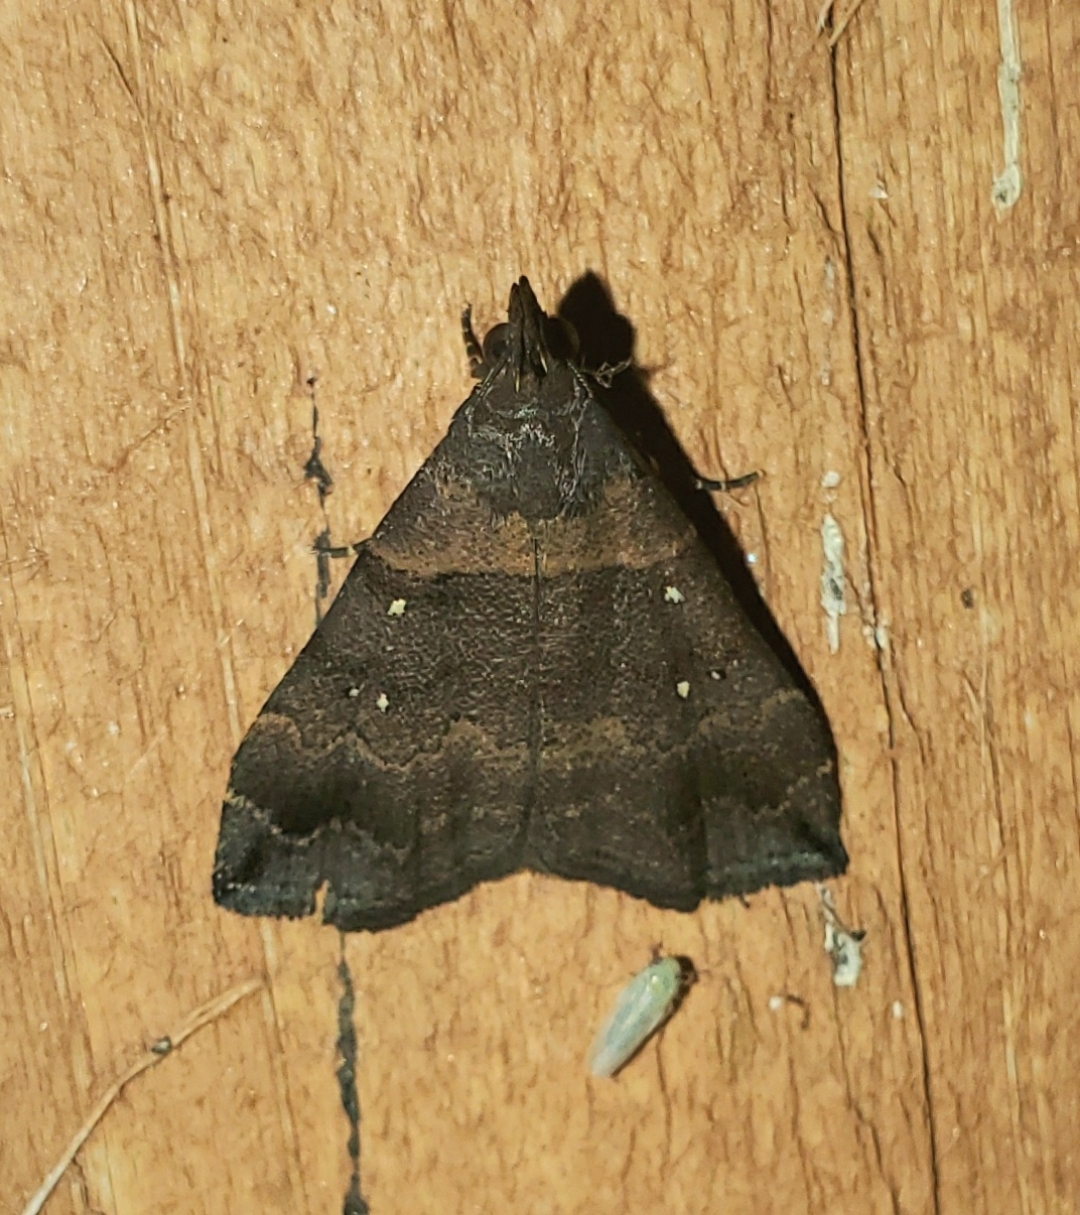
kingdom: Animalia
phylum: Arthropoda
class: Insecta
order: Lepidoptera
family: Erebidae
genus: Lascoria
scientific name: Lascoria ambigualis
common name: Ambiguous moth
